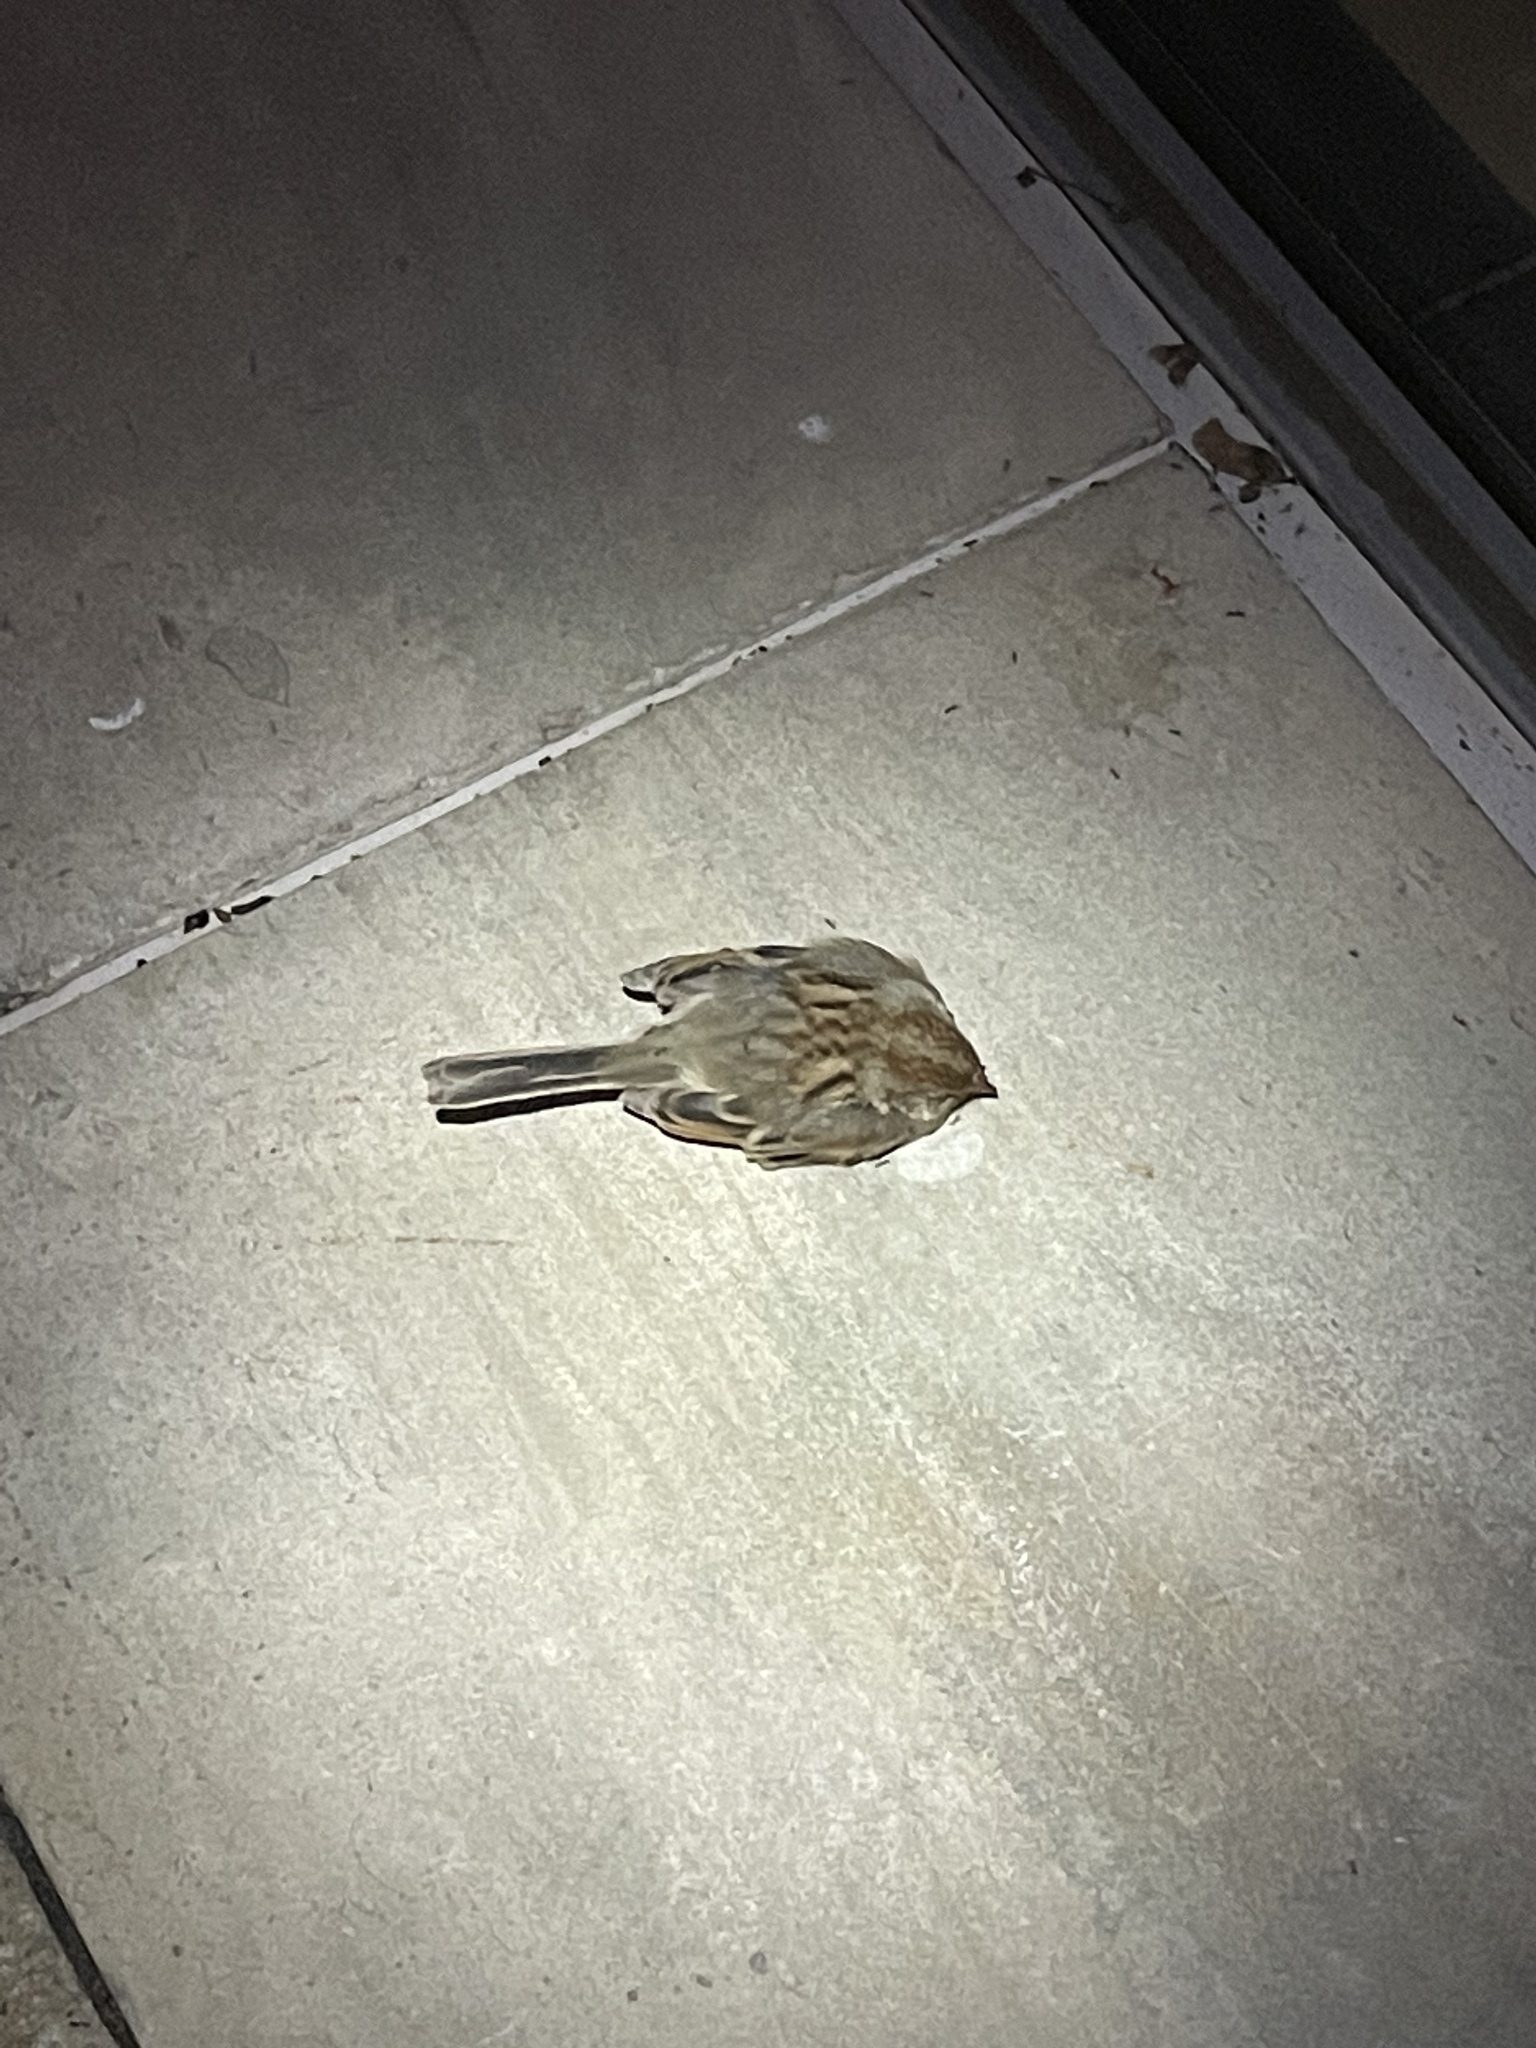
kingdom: Animalia
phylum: Chordata
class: Aves
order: Passeriformes
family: Passerellidae
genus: Spizella
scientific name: Spizella pusilla
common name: Field sparrow
